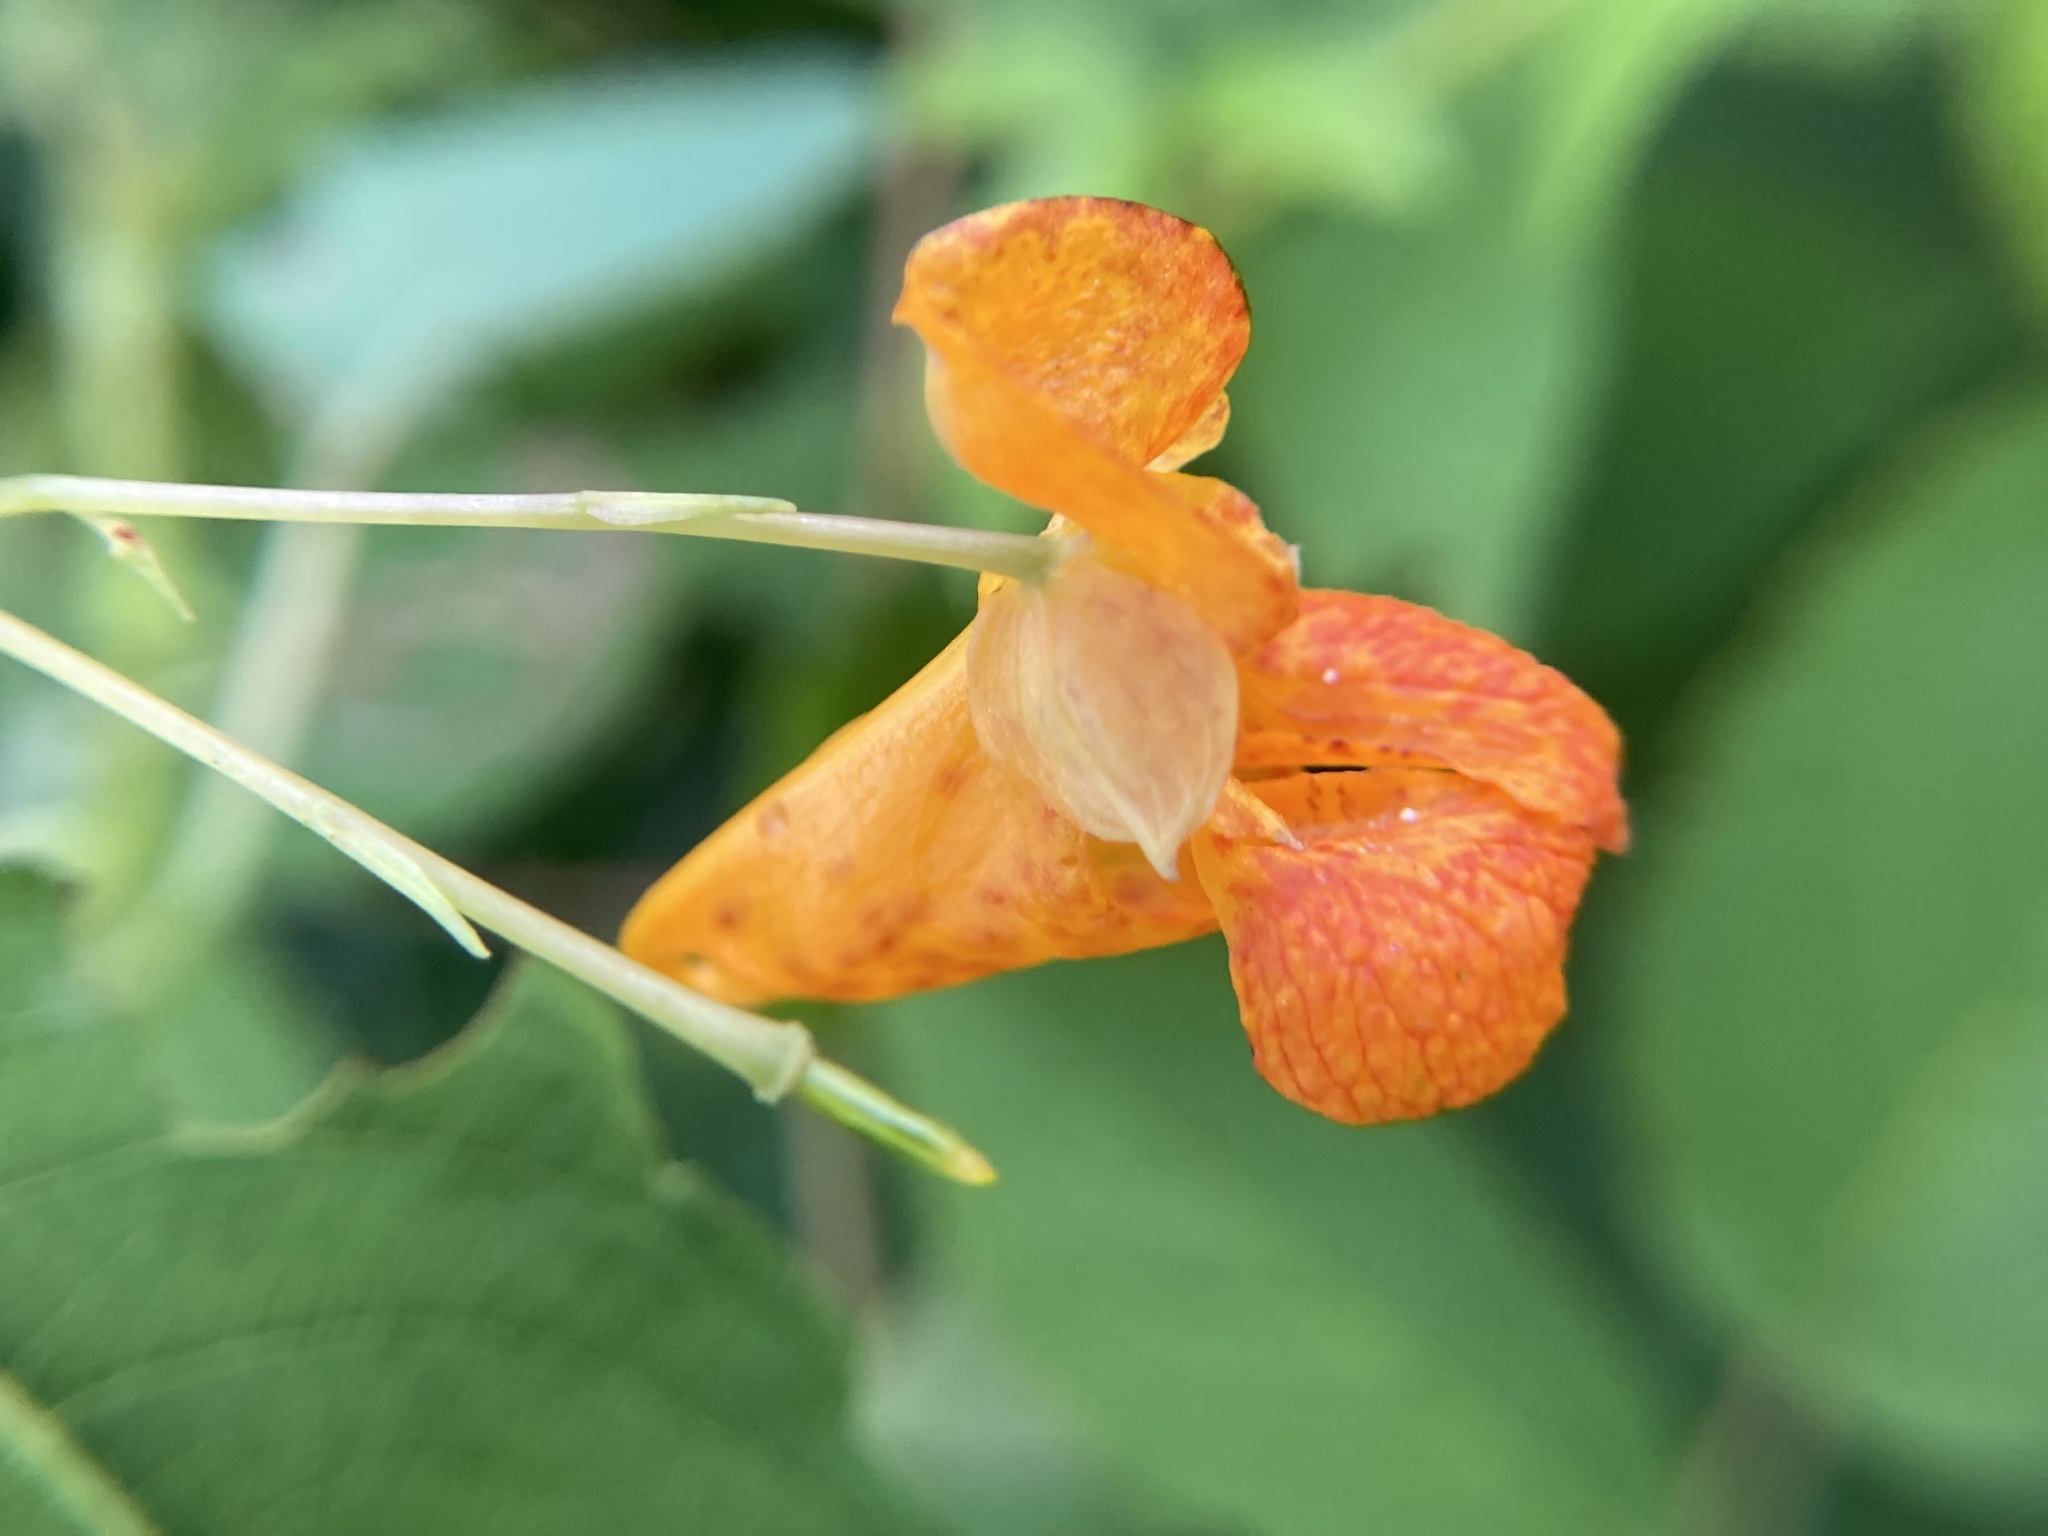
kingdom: Plantae
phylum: Tracheophyta
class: Magnoliopsida
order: Ericales
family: Balsaminaceae
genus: Impatiens
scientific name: Impatiens capensis
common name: Orange balsam
